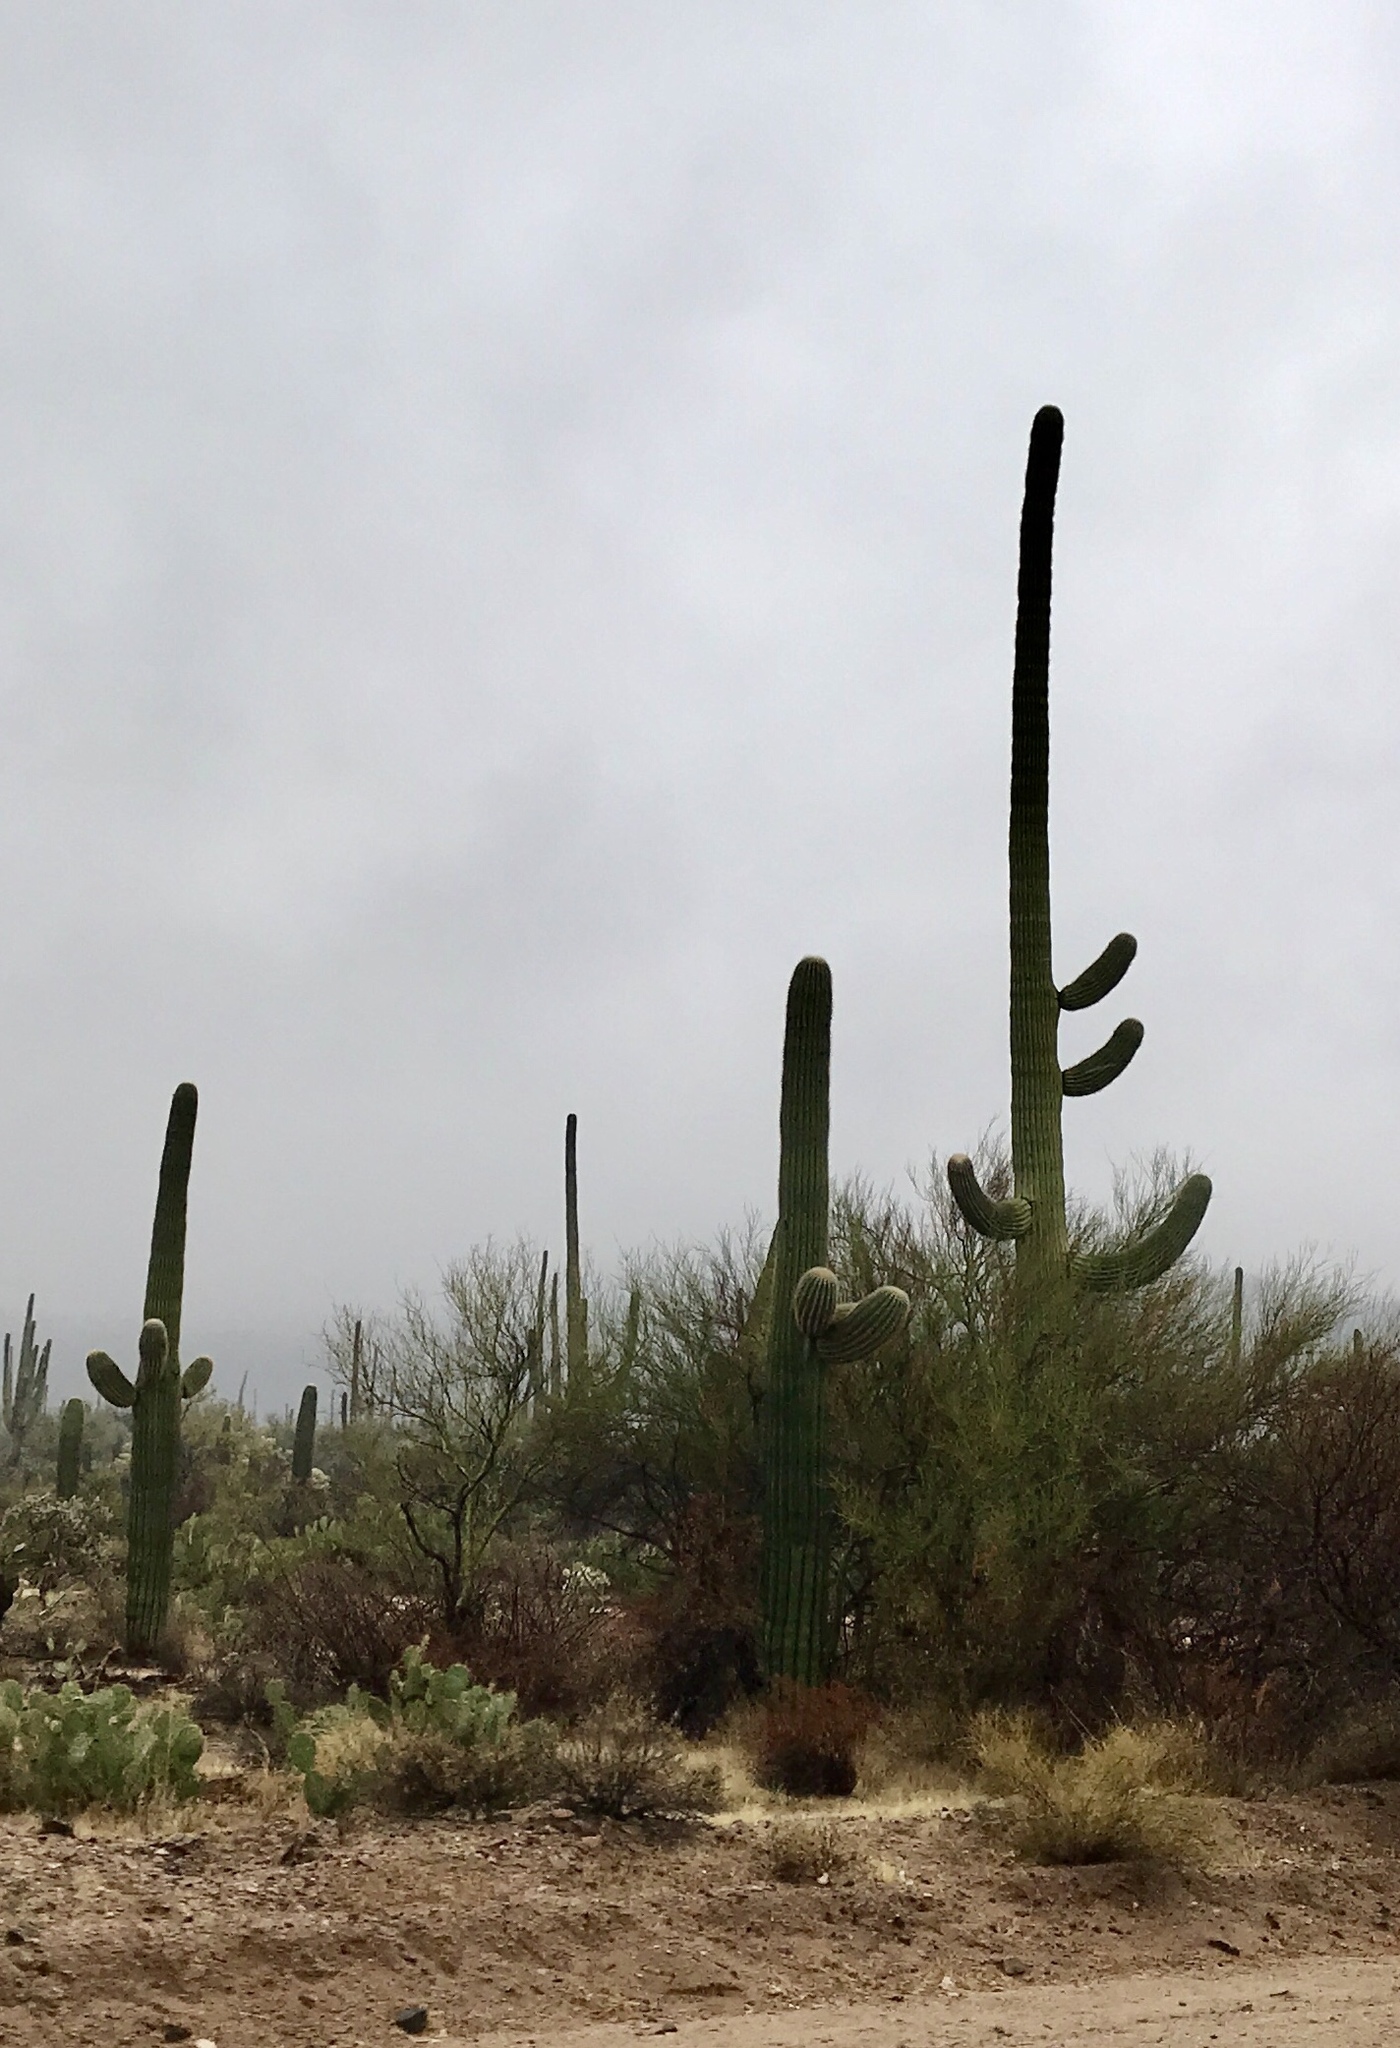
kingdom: Plantae
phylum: Tracheophyta
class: Magnoliopsida
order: Caryophyllales
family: Cactaceae
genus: Carnegiea
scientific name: Carnegiea gigantea
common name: Saguaro
